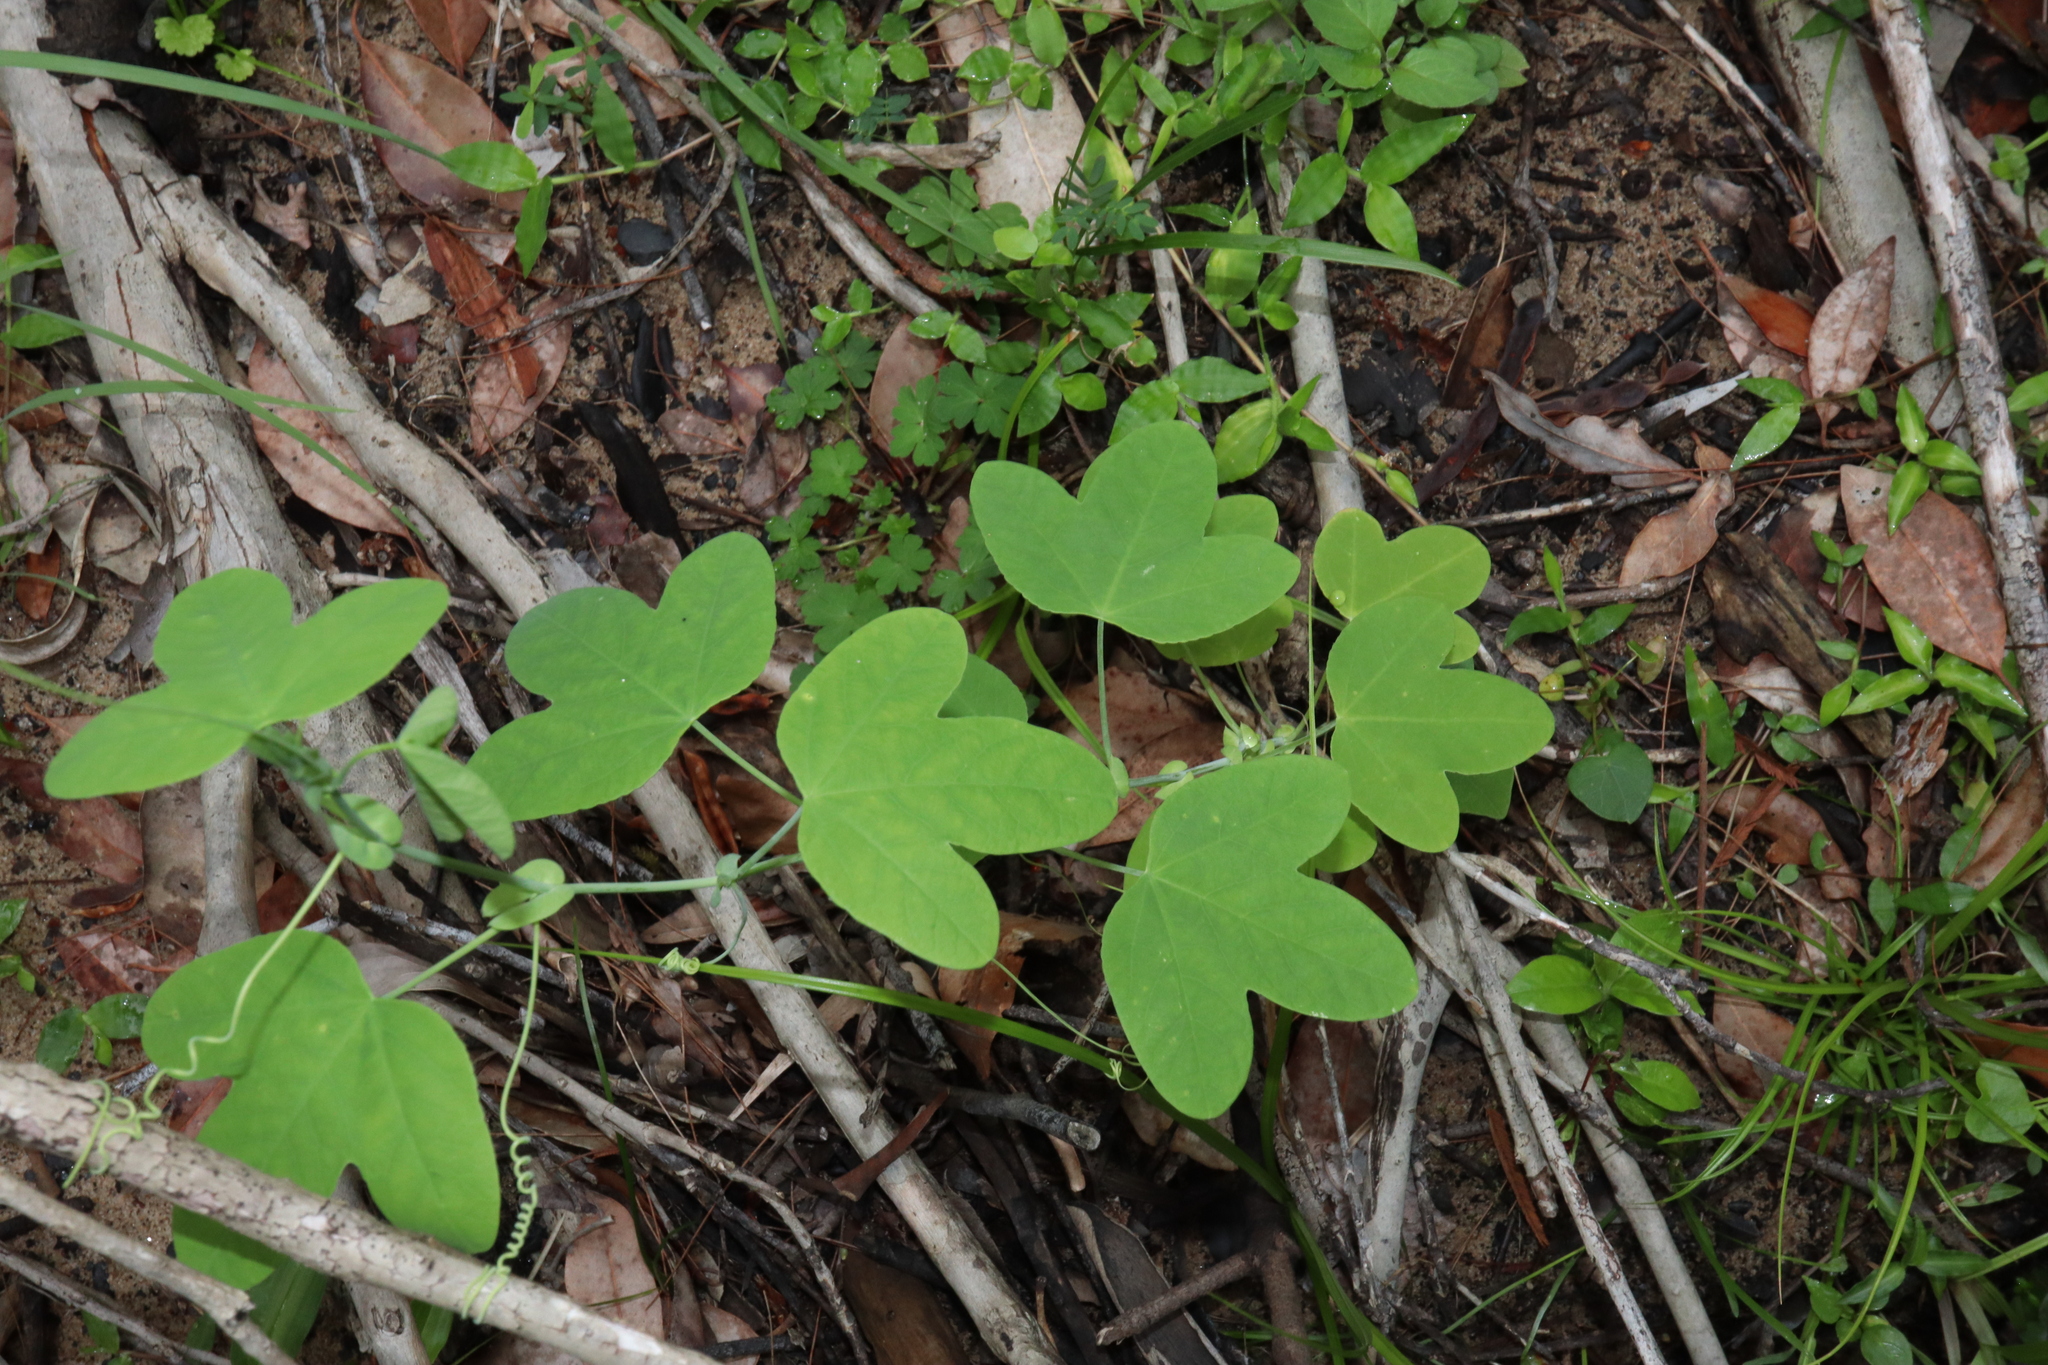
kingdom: Plantae
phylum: Tracheophyta
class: Magnoliopsida
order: Malpighiales
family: Passifloraceae
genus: Passiflora
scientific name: Passiflora subpeltata
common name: White passionflower
